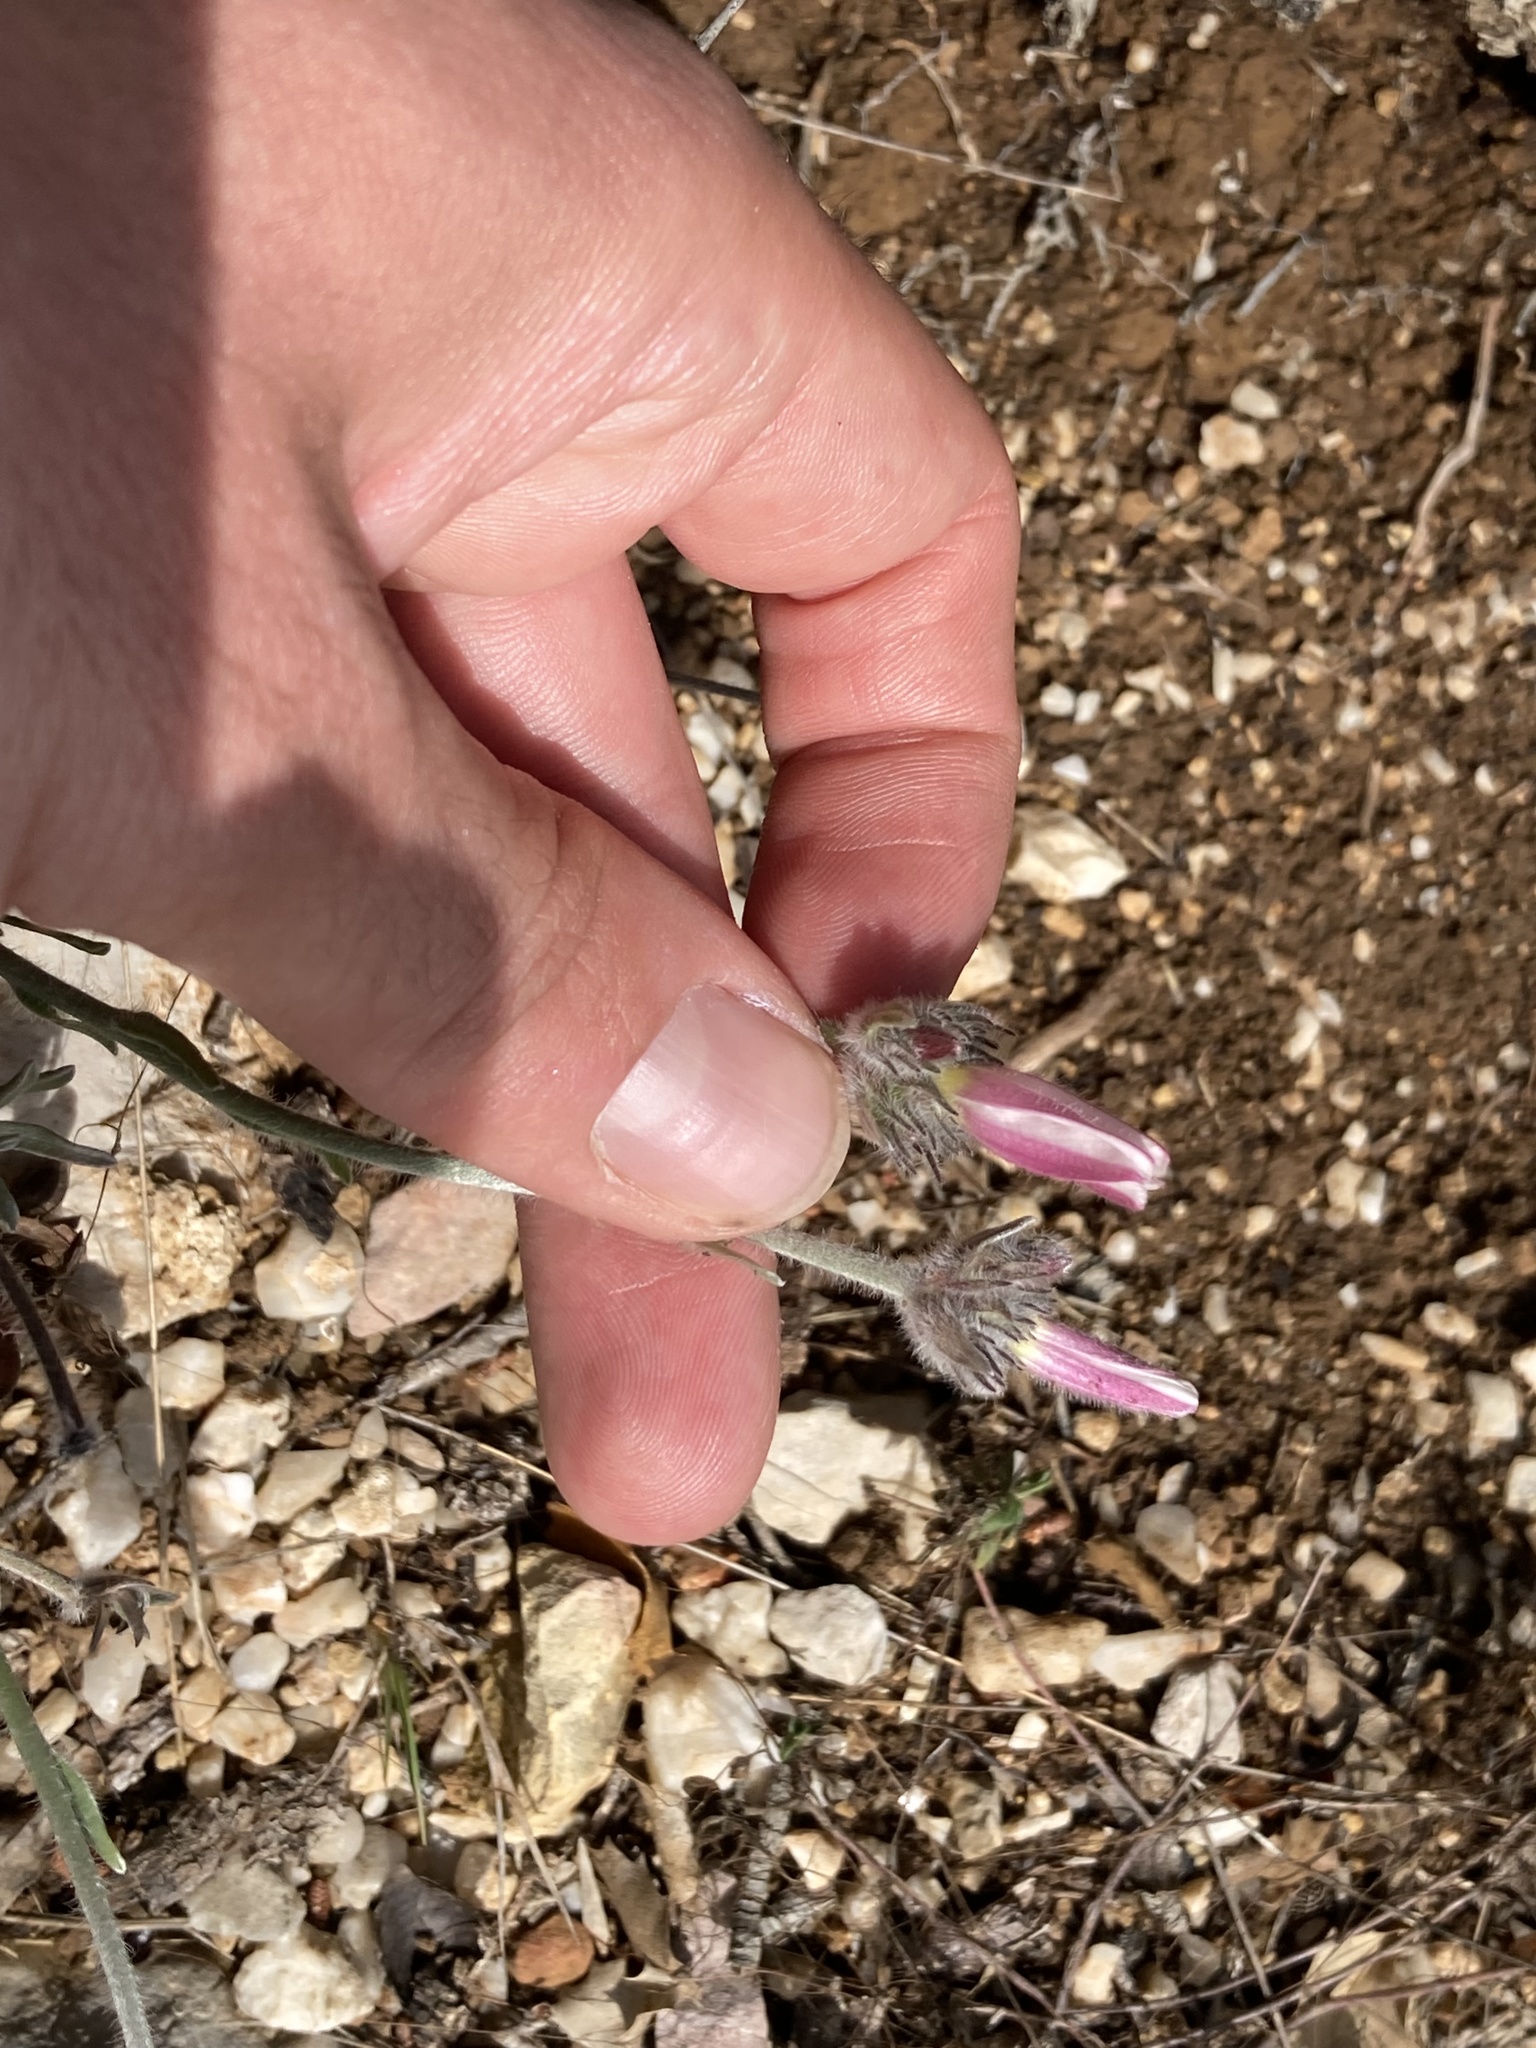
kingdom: Plantae
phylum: Tracheophyta
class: Magnoliopsida
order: Solanales
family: Convolvulaceae
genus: Convolvulus
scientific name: Convolvulus lanuginosus
